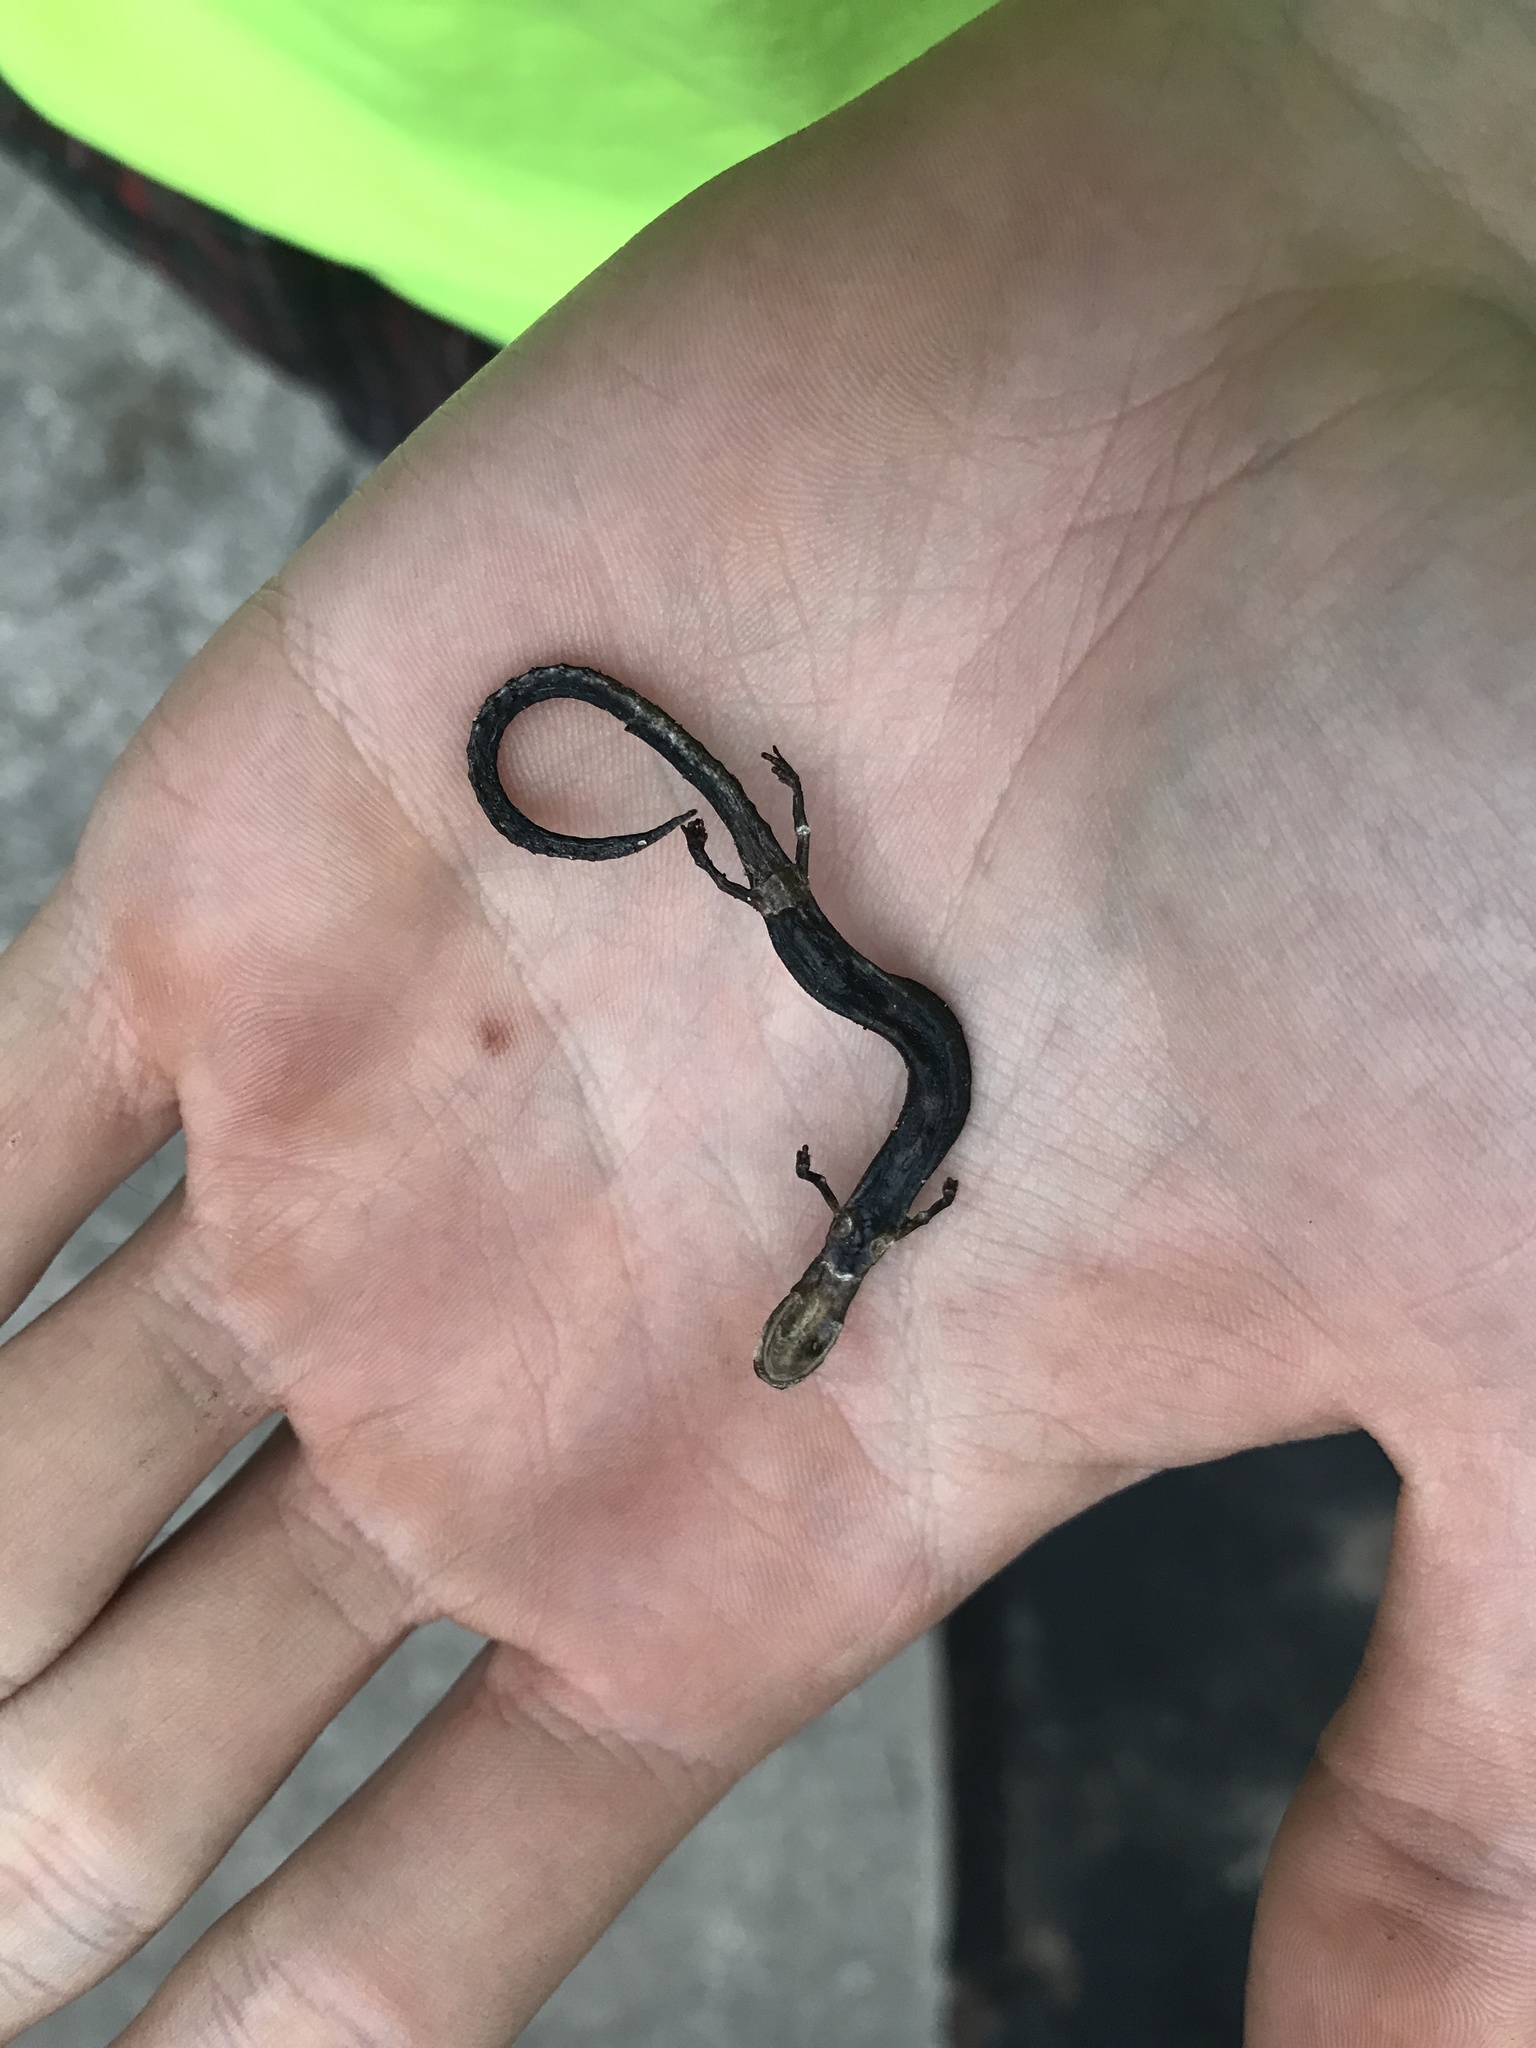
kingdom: Animalia
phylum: Chordata
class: Amphibia
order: Caudata
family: Plethodontidae
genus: Plethodon
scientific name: Plethodon cinereus
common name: Redback salamander
